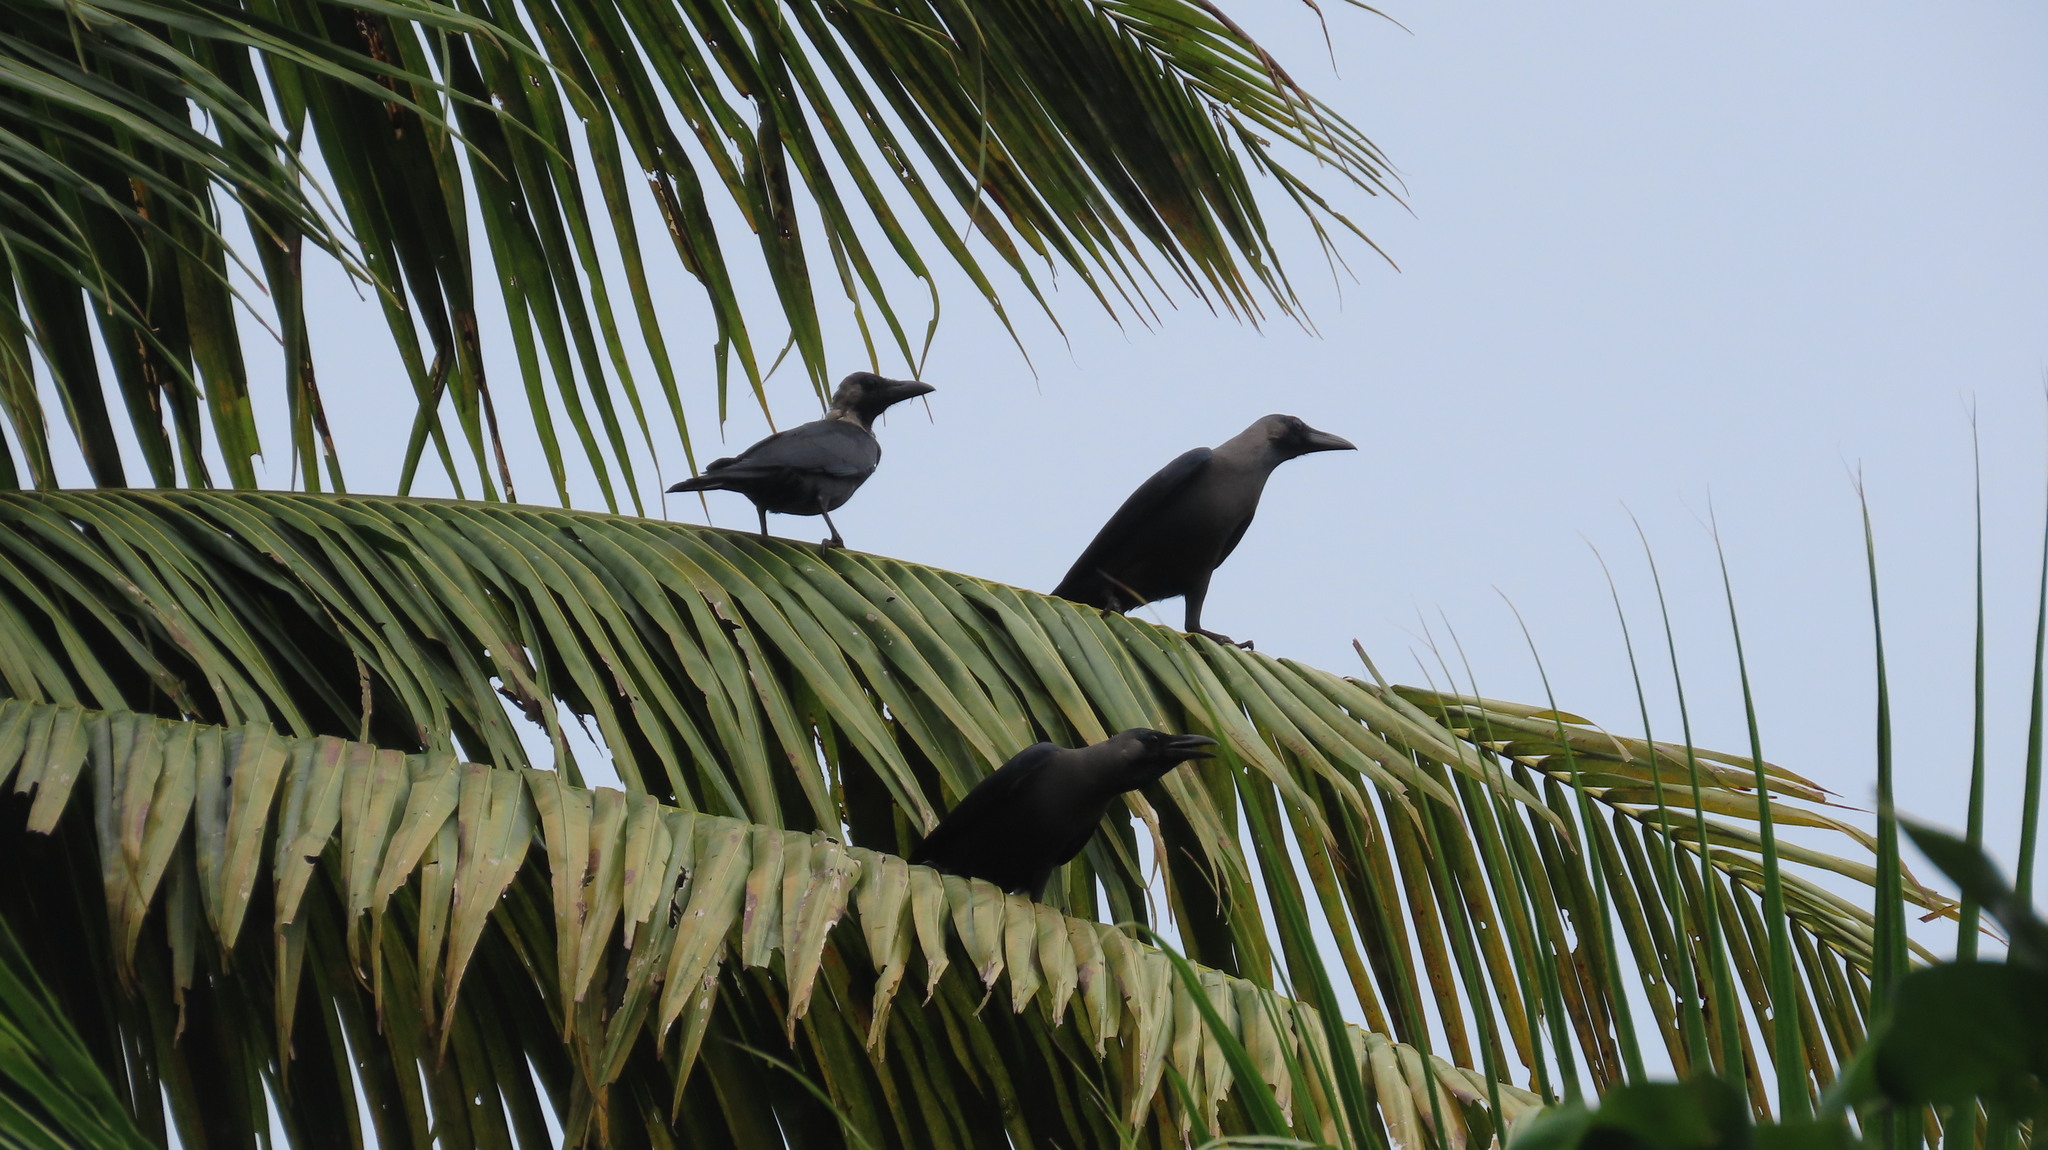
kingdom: Animalia
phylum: Chordata
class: Aves
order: Passeriformes
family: Corvidae
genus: Corvus
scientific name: Corvus splendens
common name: House crow
